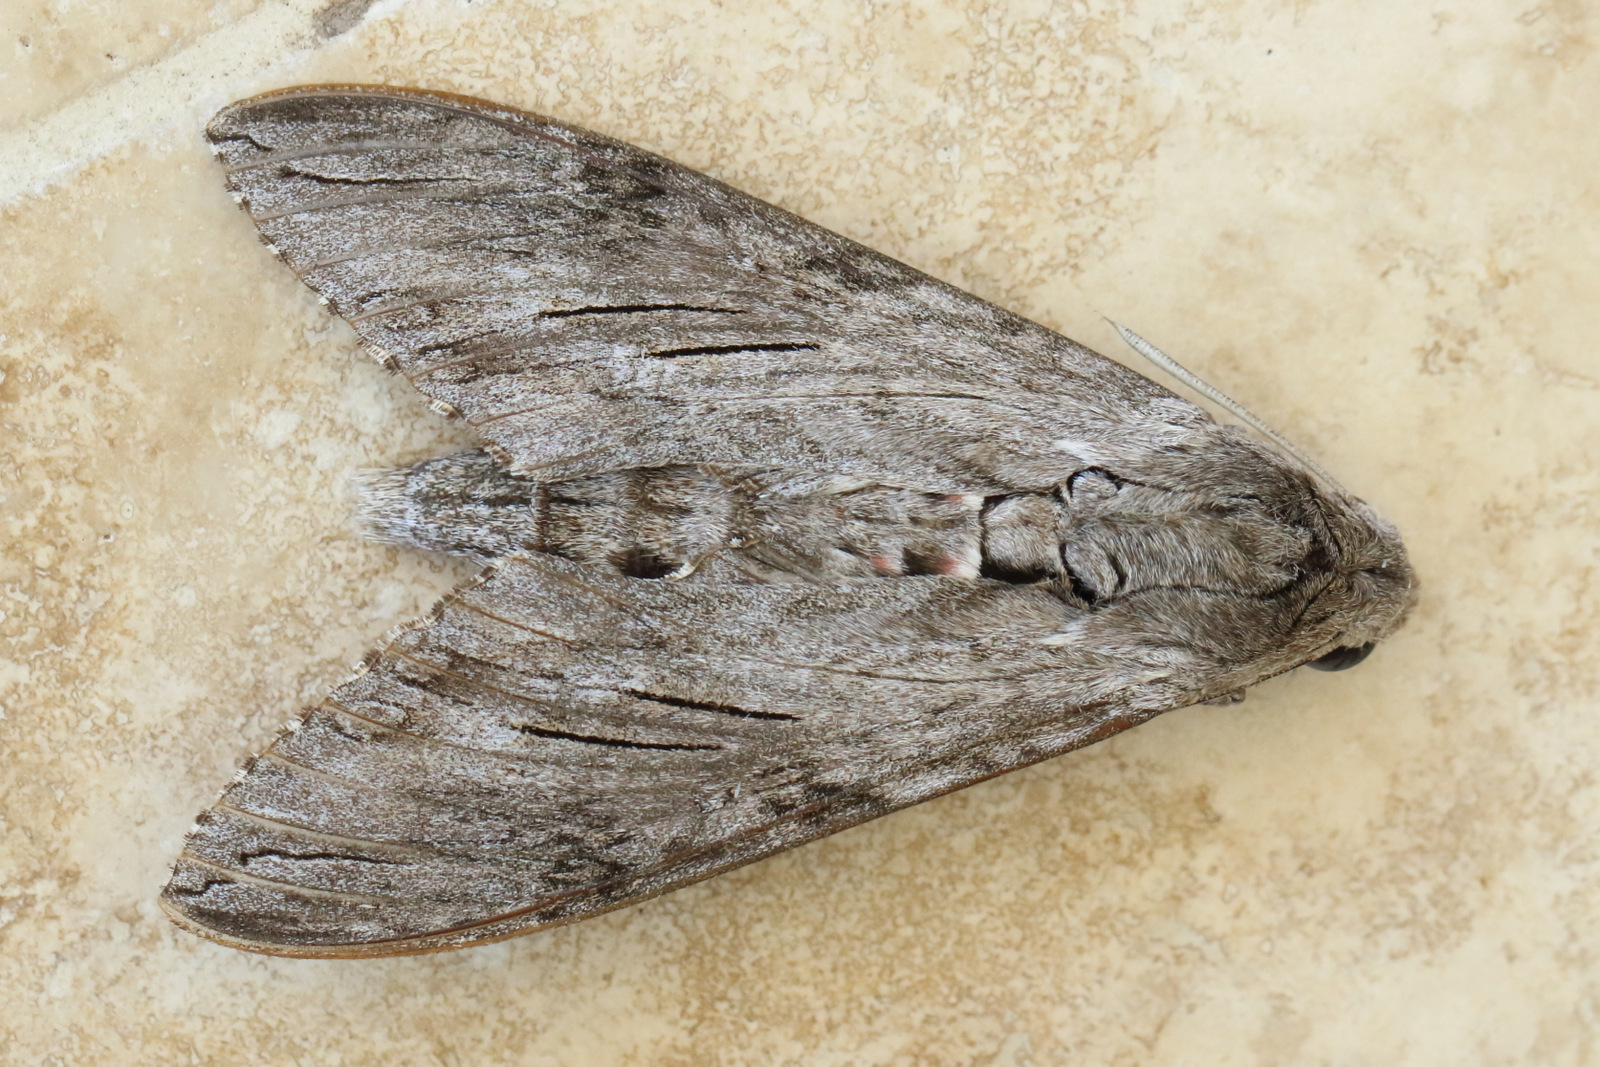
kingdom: Animalia
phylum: Arthropoda
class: Insecta
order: Lepidoptera
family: Sphingidae
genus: Agrius
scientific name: Agrius convolvuli
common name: Convolvulus hawkmoth
